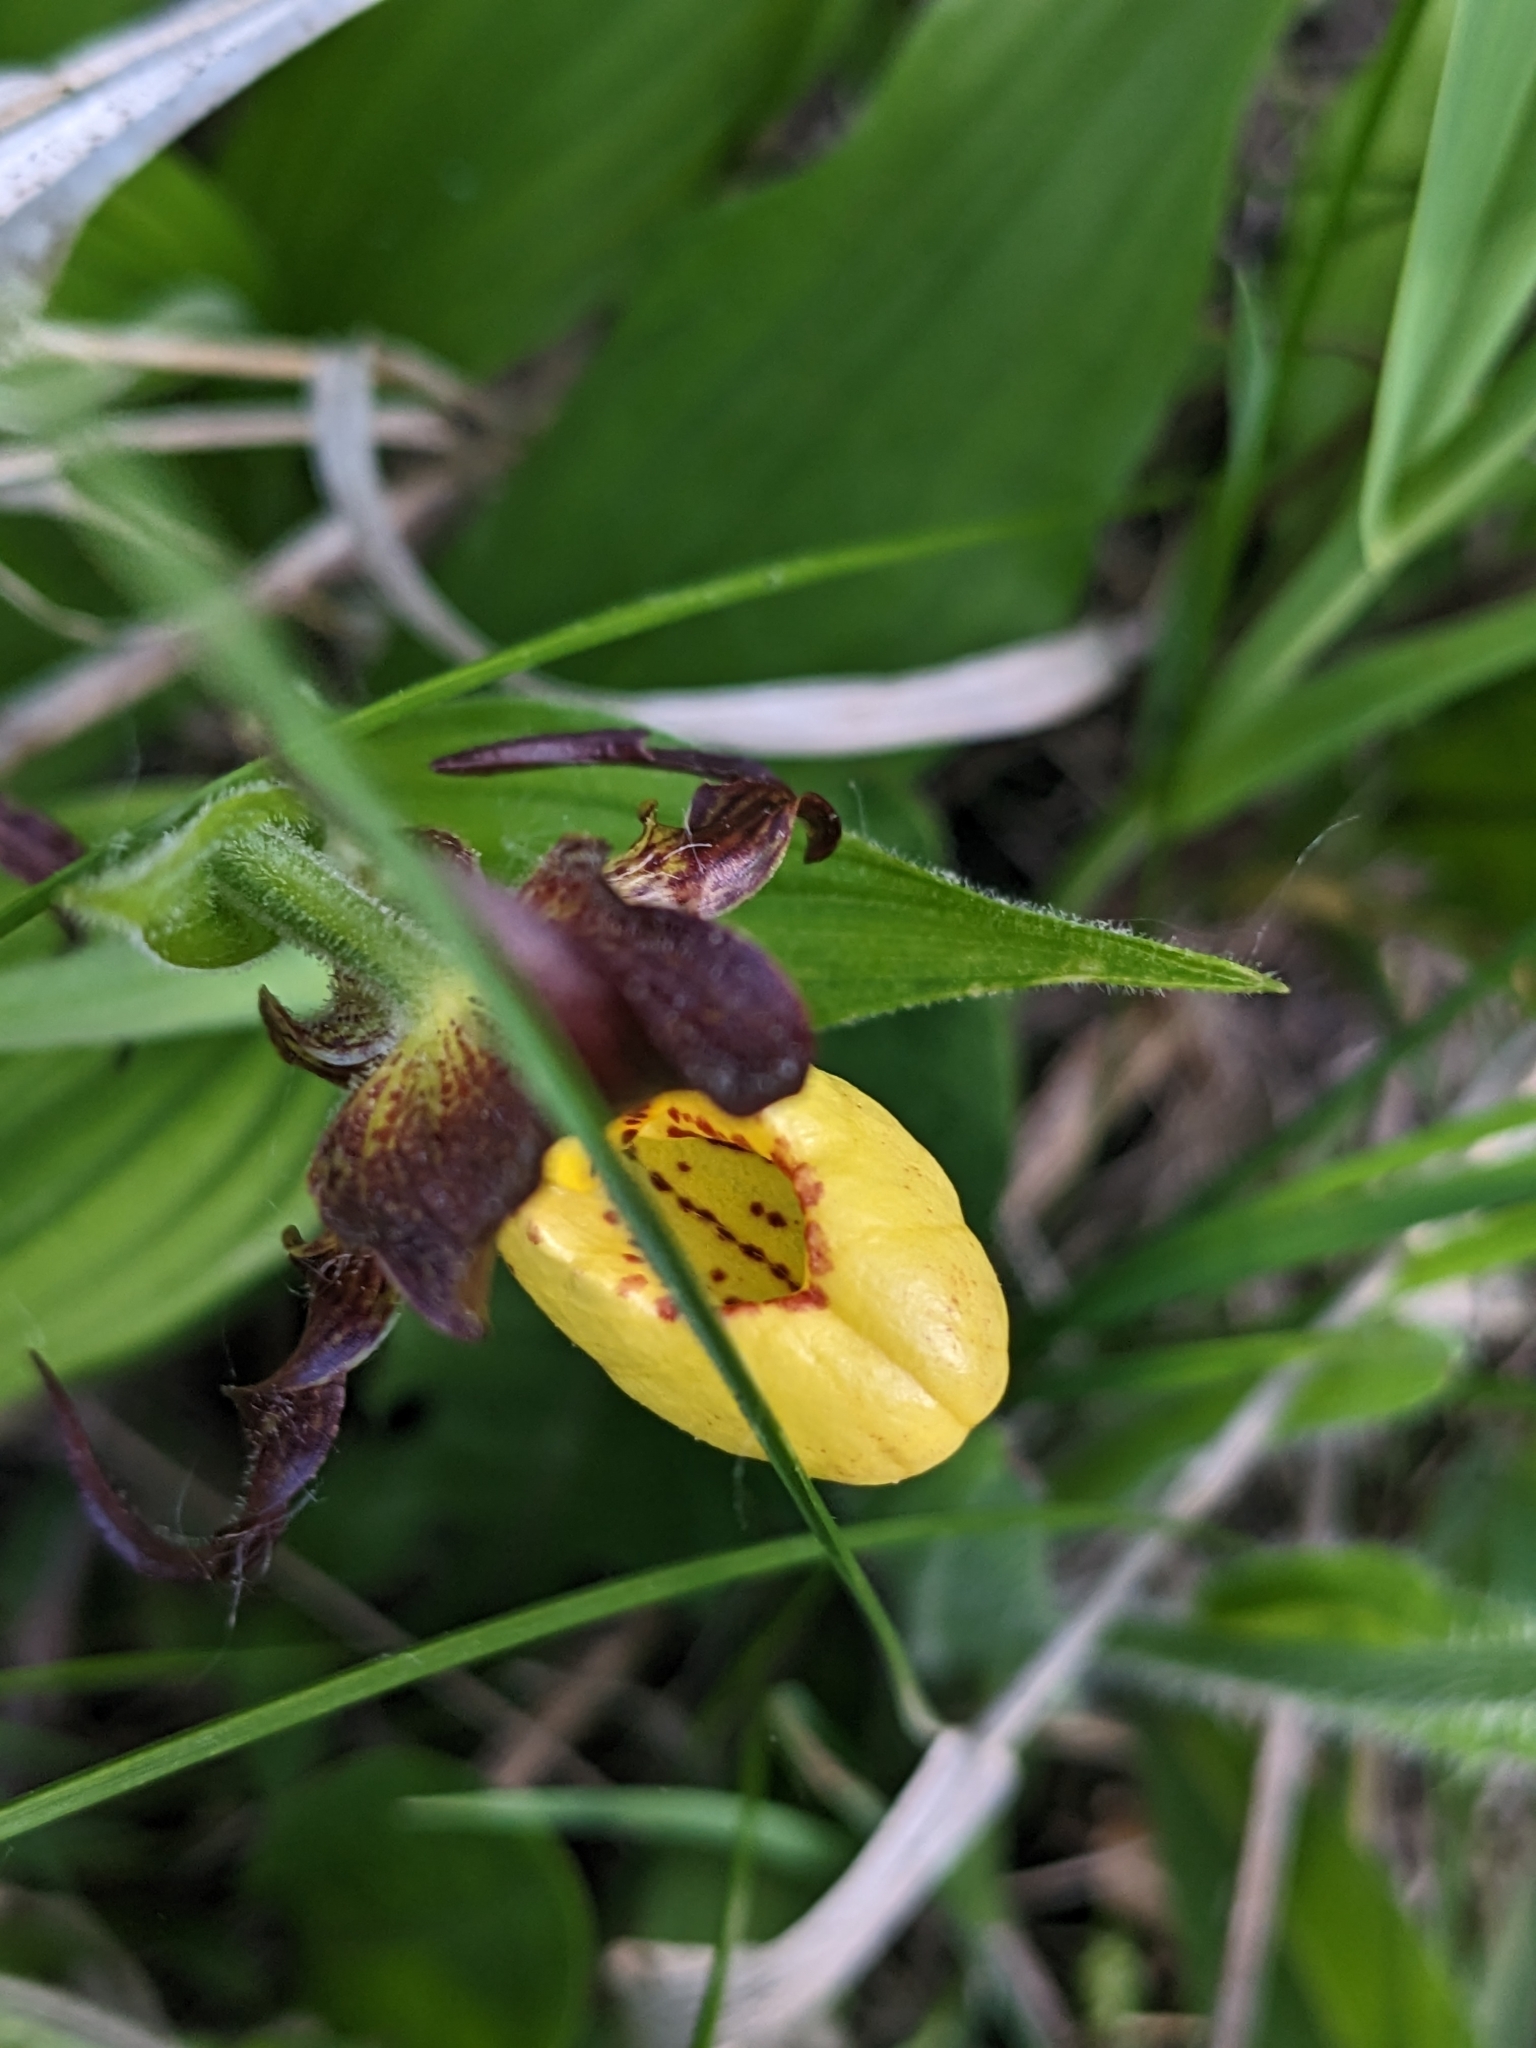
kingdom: Plantae
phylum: Tracheophyta
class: Liliopsida
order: Asparagales
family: Orchidaceae
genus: Cypripedium
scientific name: Cypripedium parviflorum
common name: American yellow lady's-slipper
